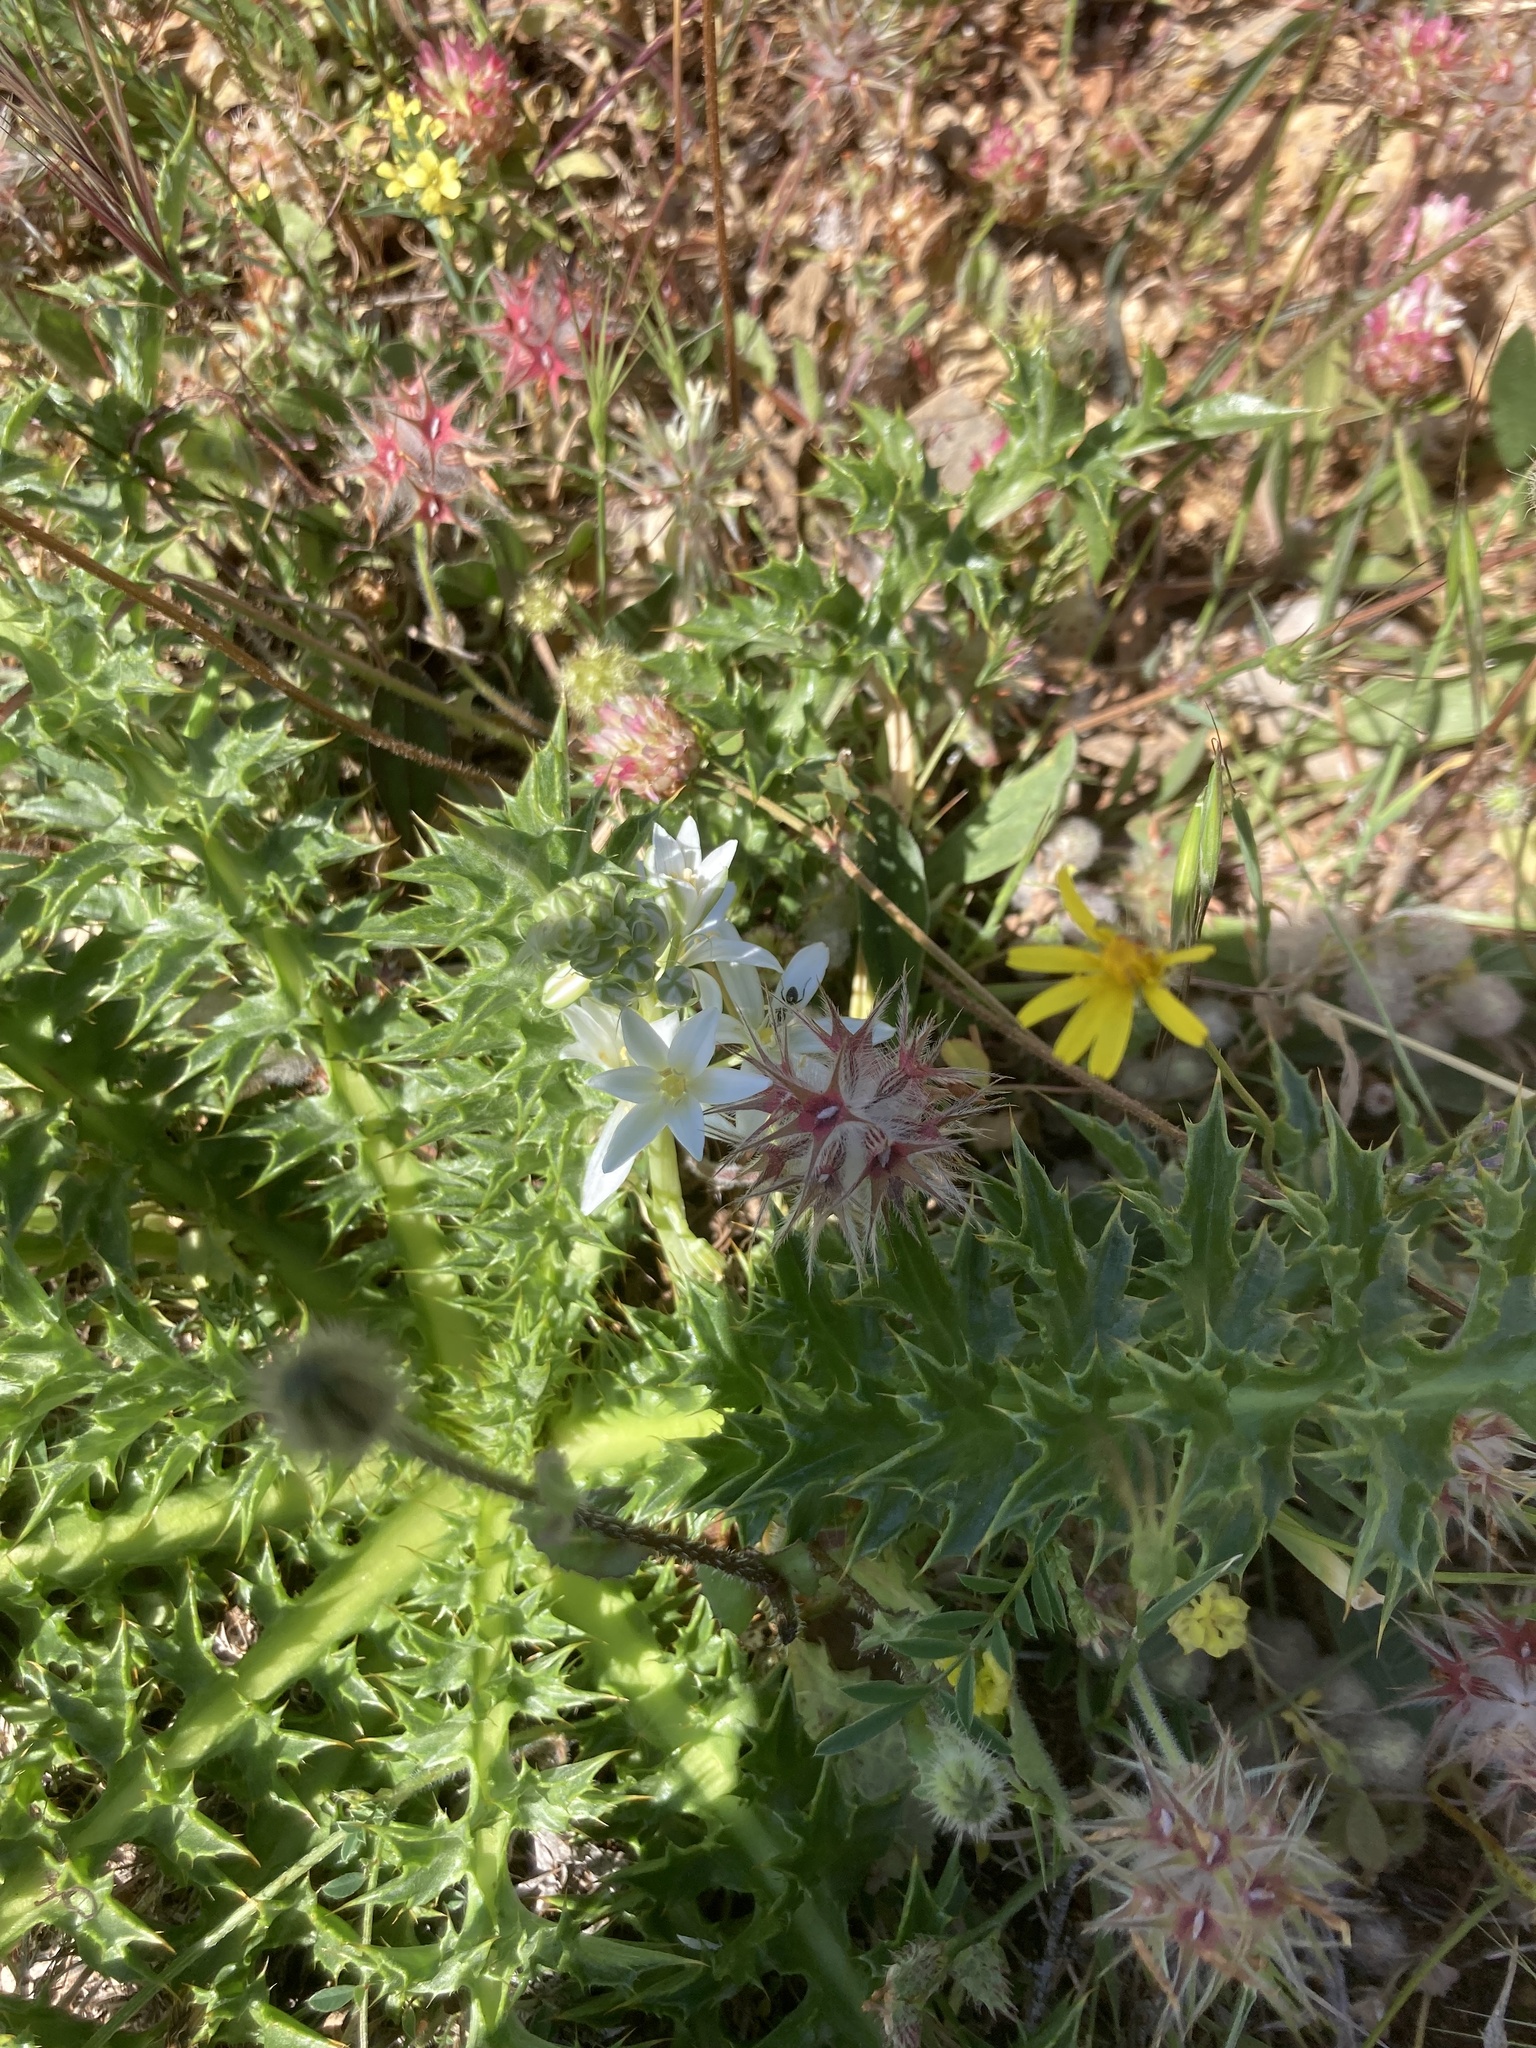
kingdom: Plantae
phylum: Tracheophyta
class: Magnoliopsida
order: Fabales
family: Fabaceae
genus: Trifolium
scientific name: Trifolium stellatum
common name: Starry clover
